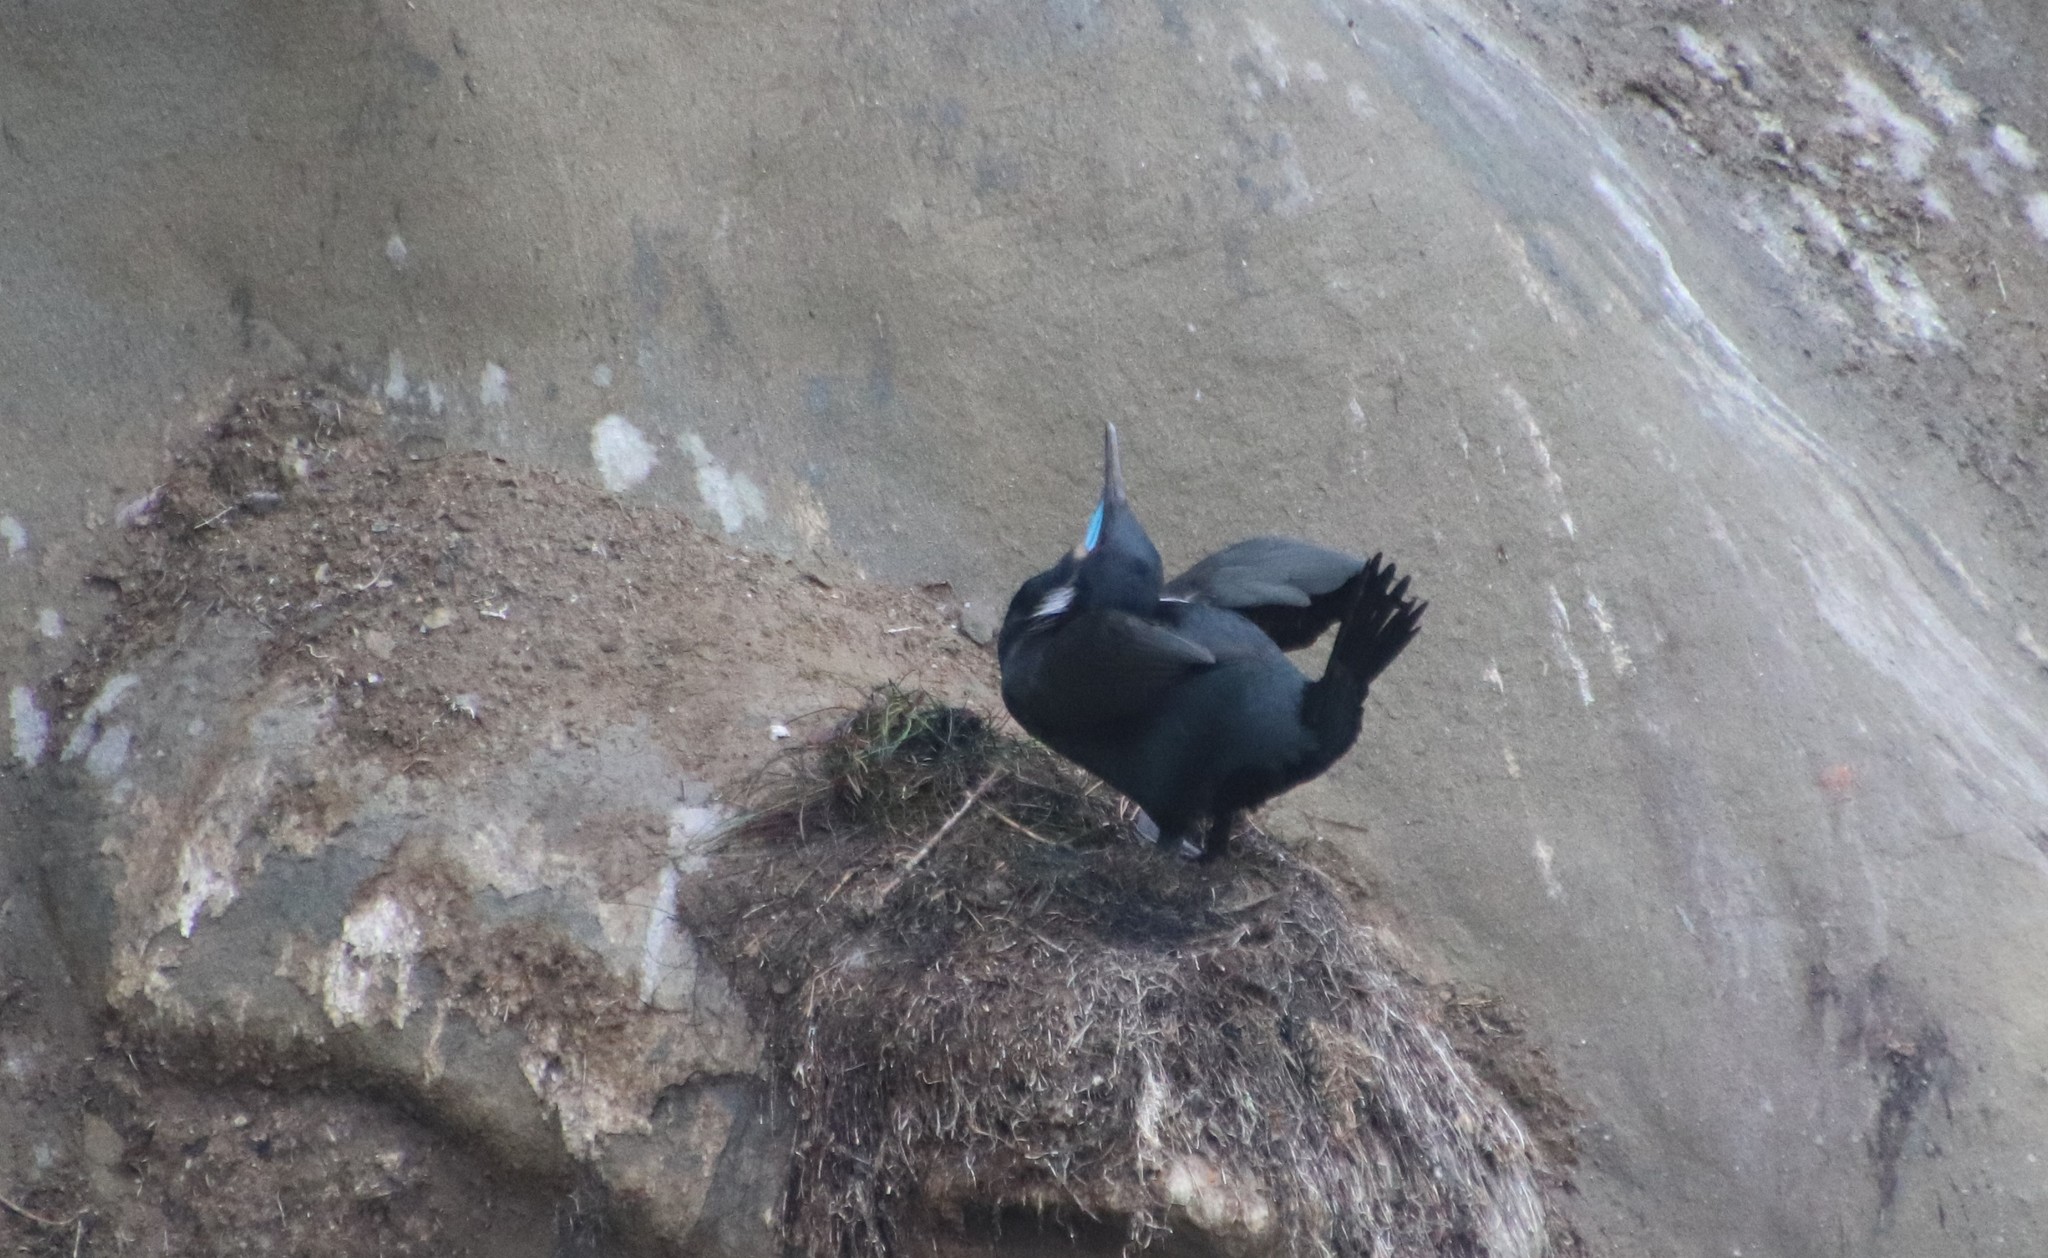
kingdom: Animalia
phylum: Chordata
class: Aves
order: Suliformes
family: Phalacrocoracidae
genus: Urile
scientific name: Urile penicillatus
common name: Brandt's cormorant
